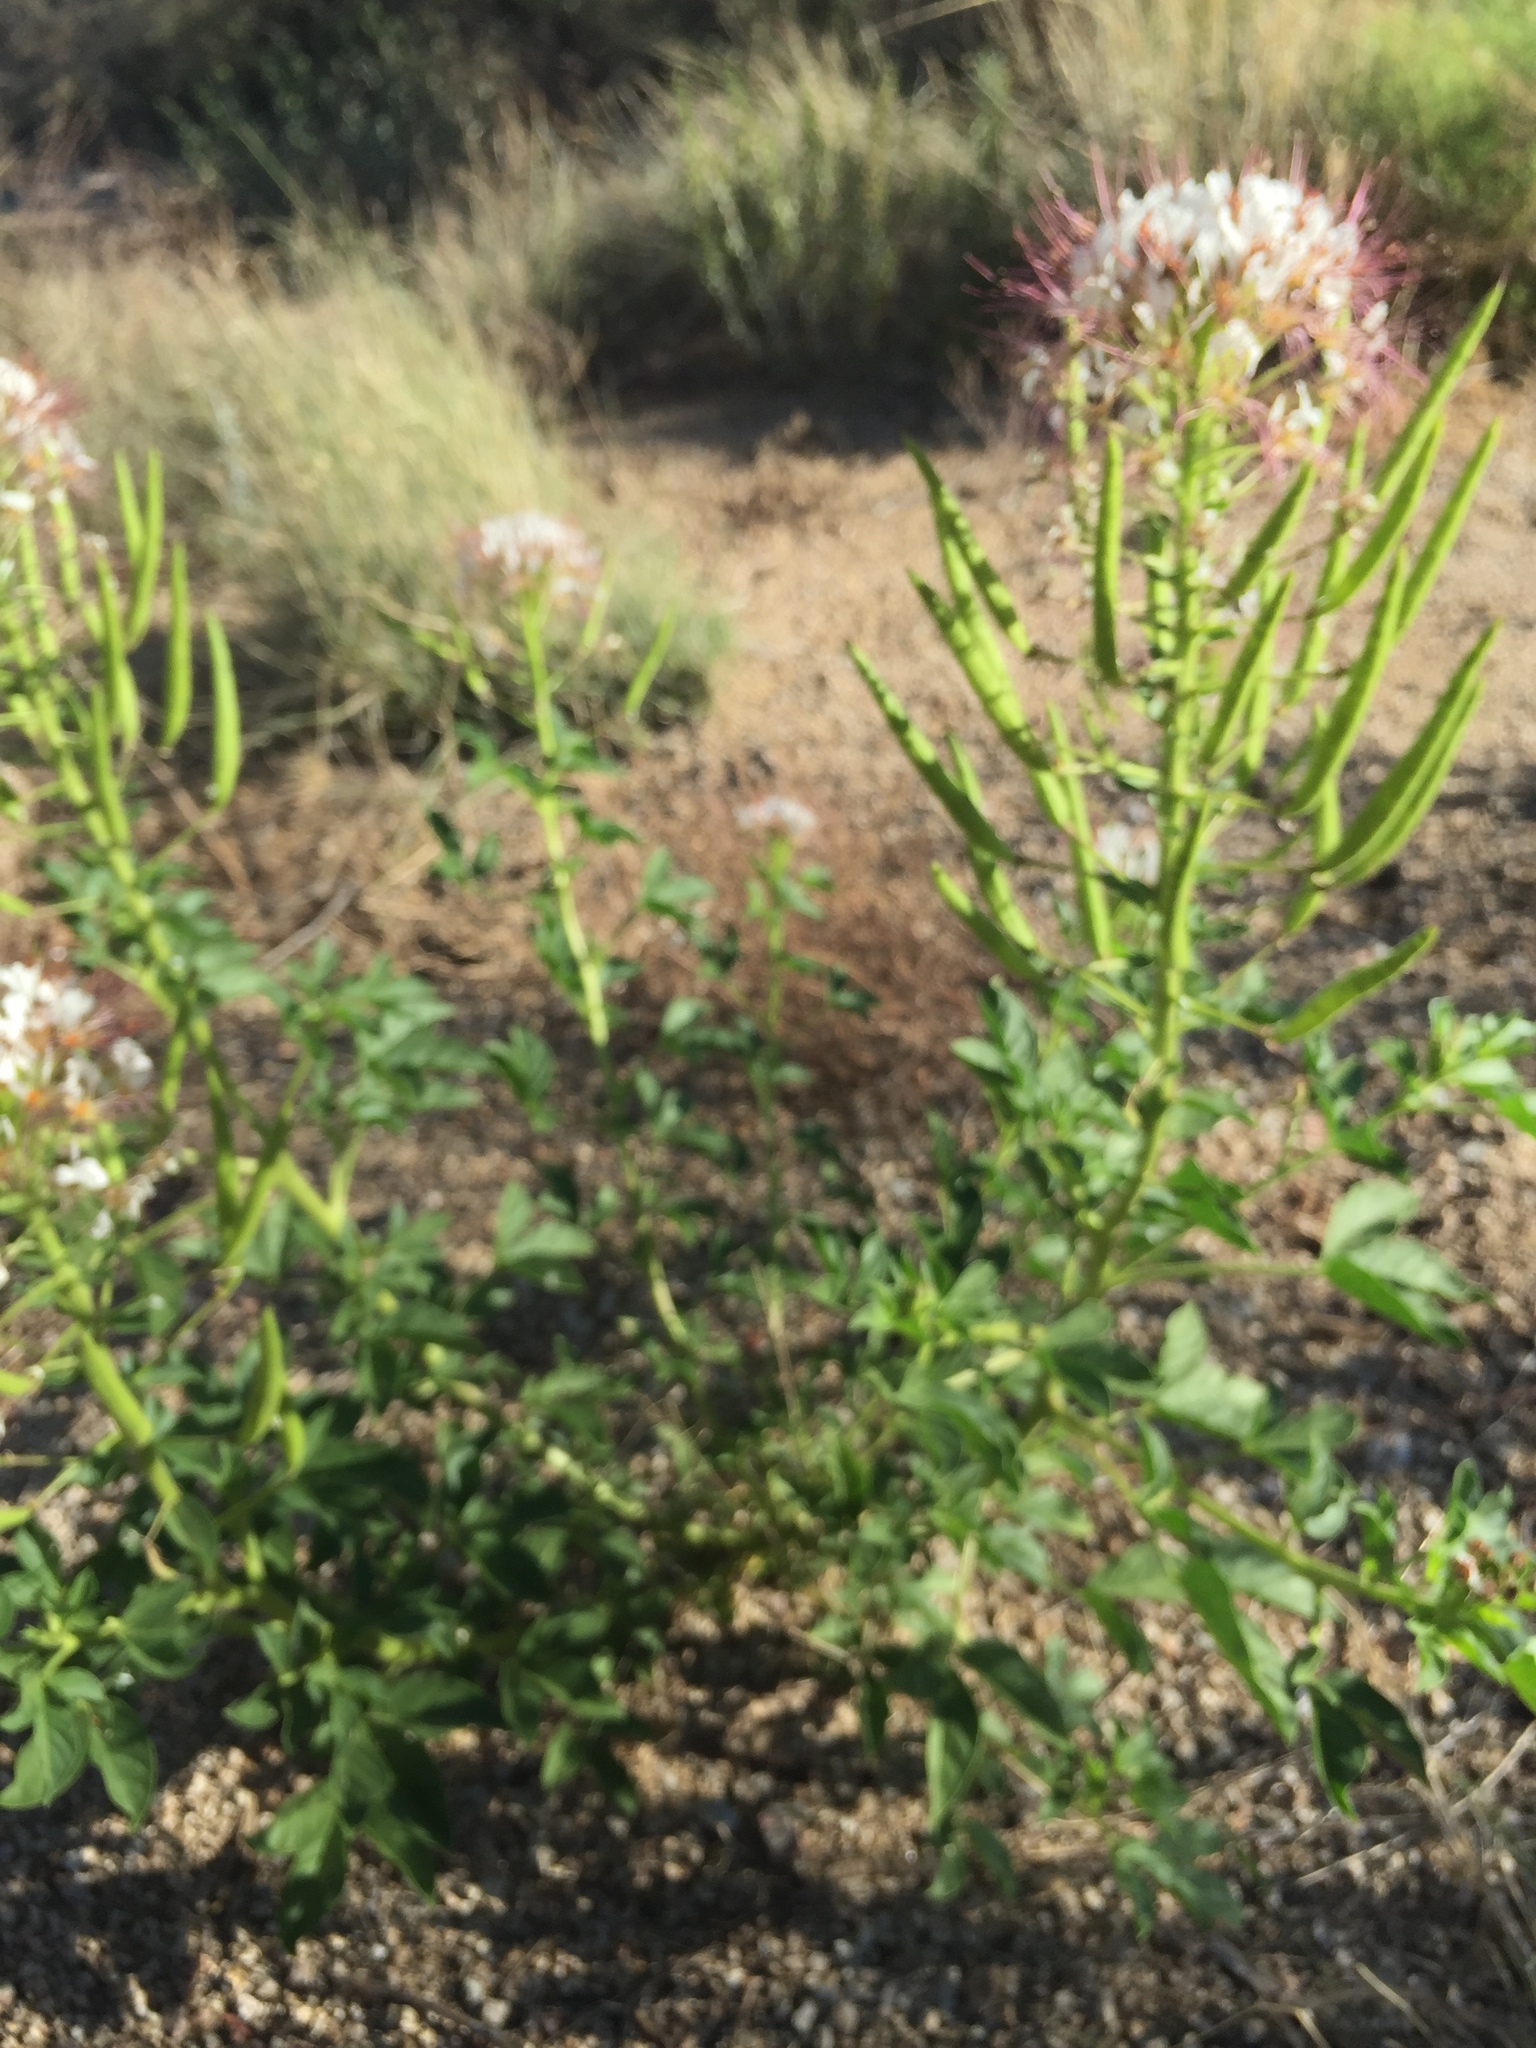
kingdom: Plantae
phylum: Tracheophyta
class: Magnoliopsida
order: Brassicales
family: Cleomaceae
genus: Polanisia
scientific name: Polanisia dodecandra
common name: Clammyweed
